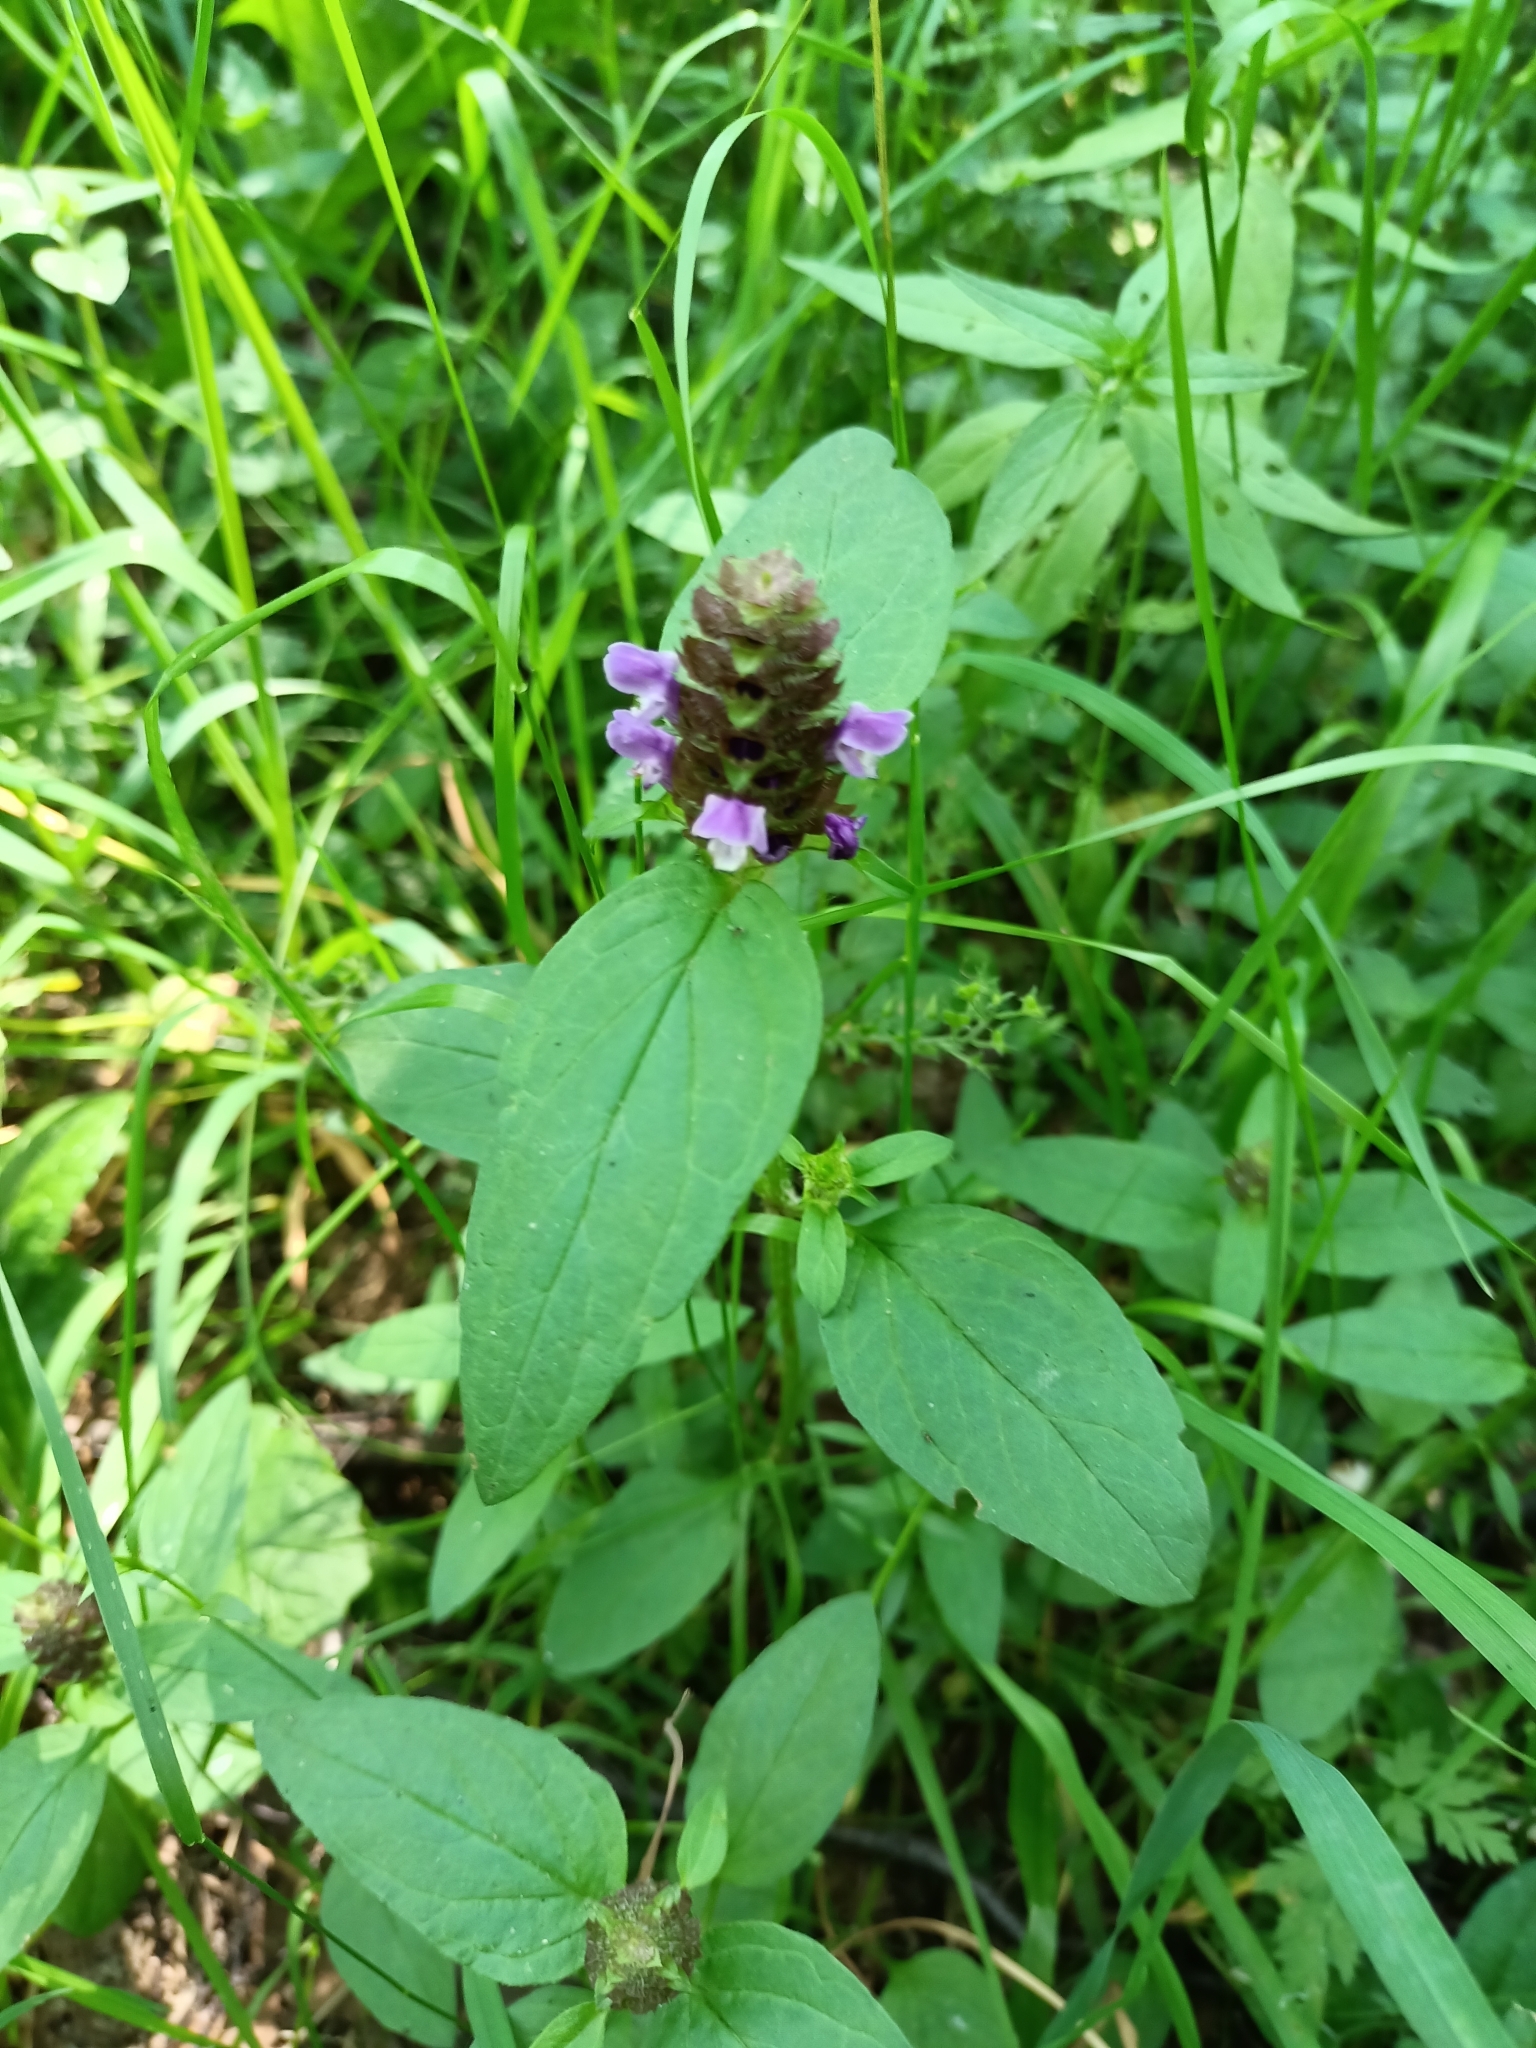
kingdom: Plantae
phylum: Tracheophyta
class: Magnoliopsida
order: Lamiales
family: Lamiaceae
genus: Prunella
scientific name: Prunella vulgaris
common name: Heal-all
